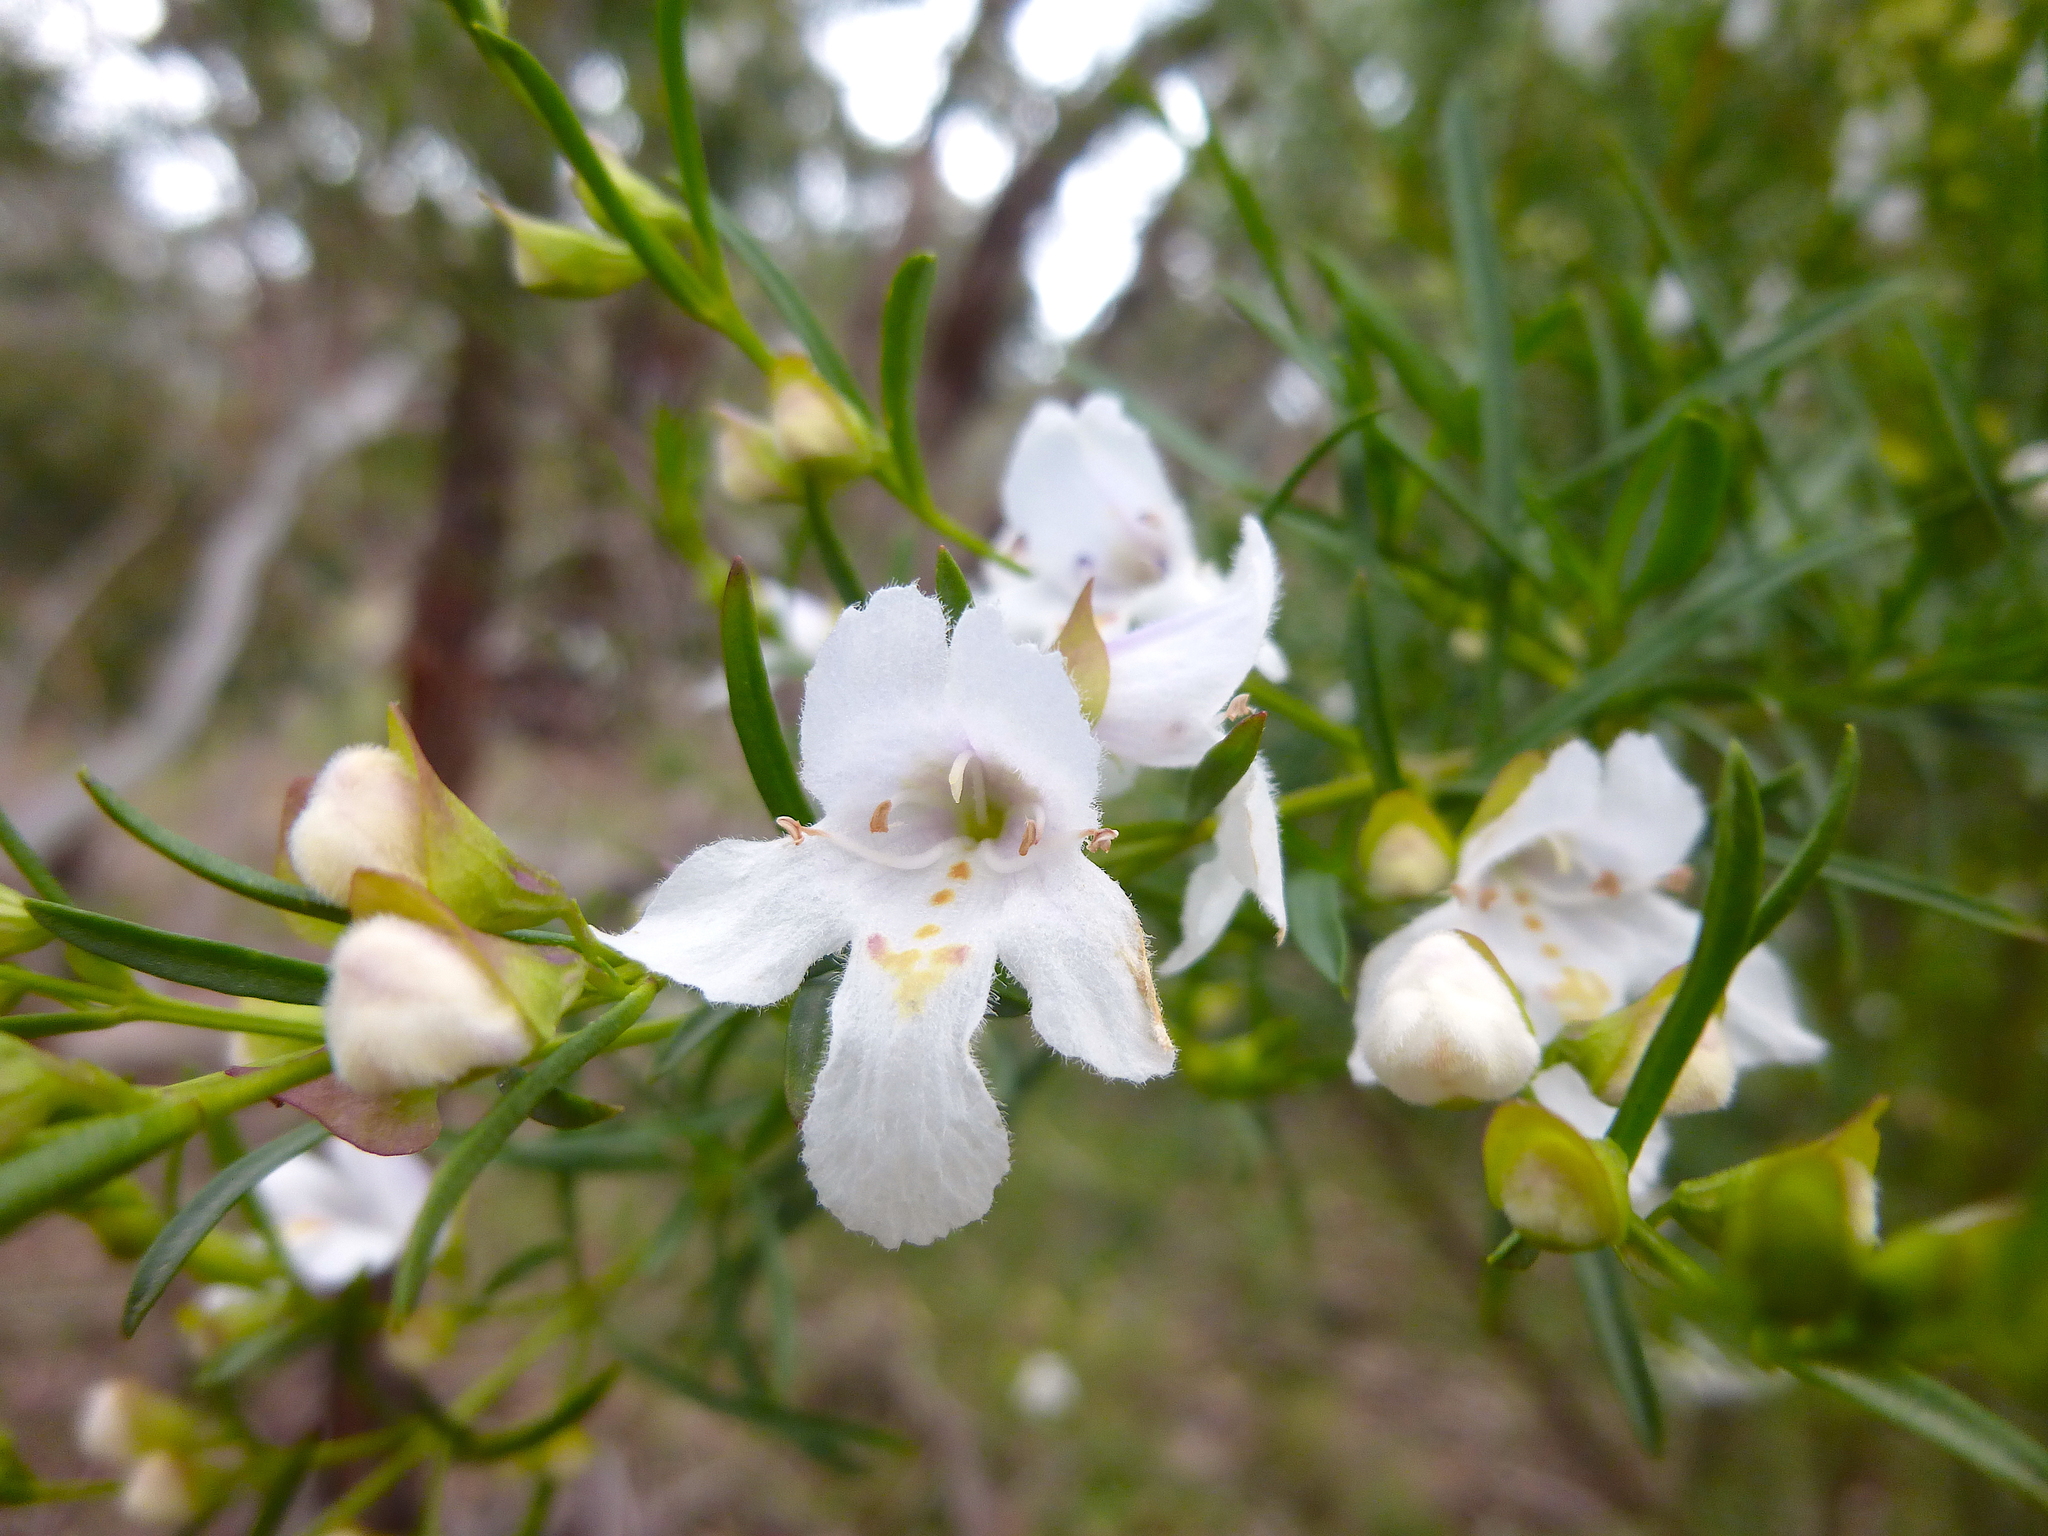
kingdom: Plantae
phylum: Tracheophyta
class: Magnoliopsida
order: Lamiales
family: Lamiaceae
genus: Prostanthera
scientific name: Prostanthera nivea
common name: Snowy mintbush
